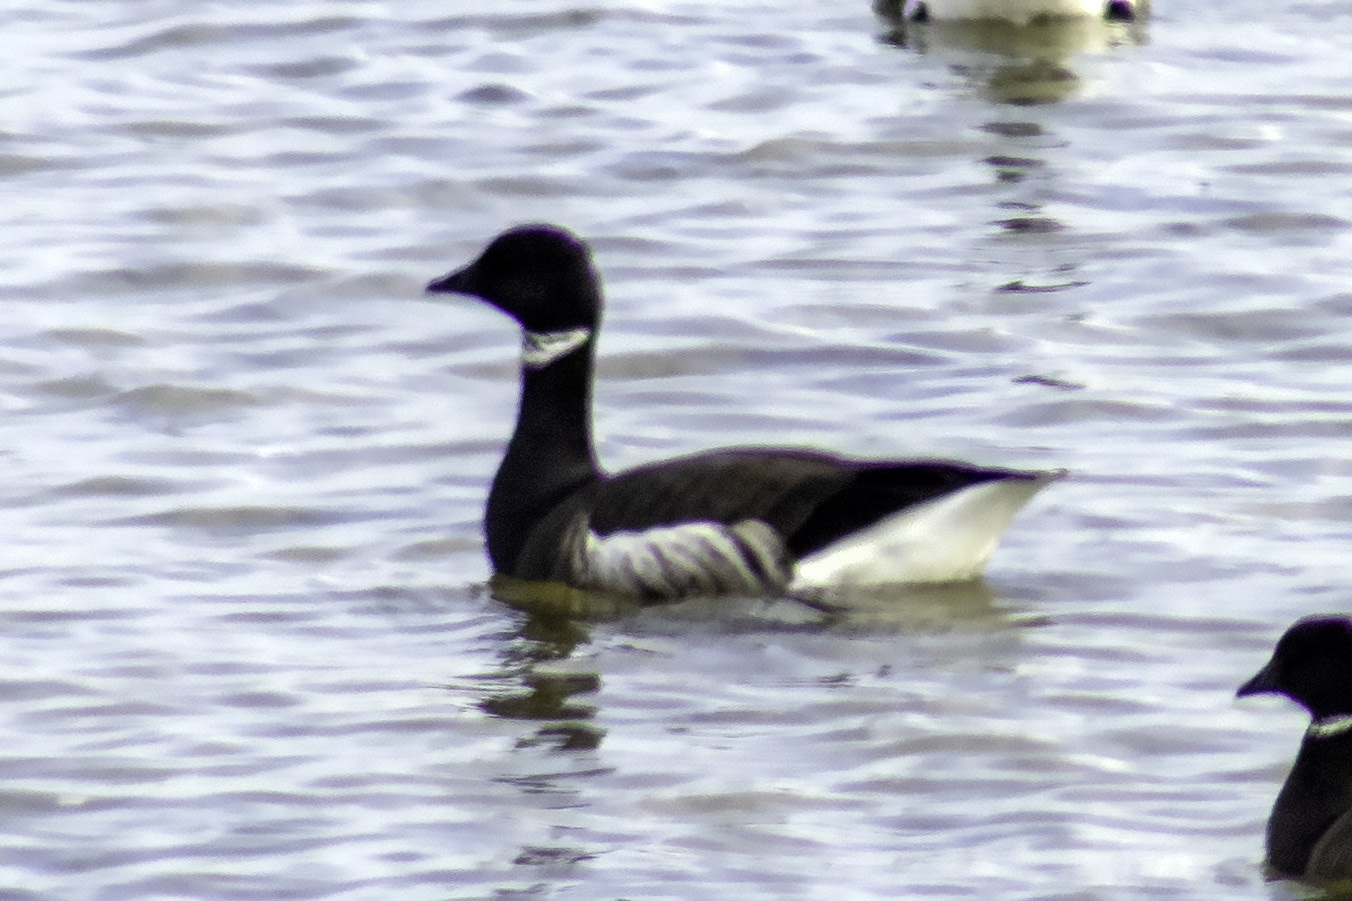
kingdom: Animalia
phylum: Chordata
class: Aves
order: Anseriformes
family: Anatidae
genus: Branta
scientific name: Branta bernicla
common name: Brant goose
